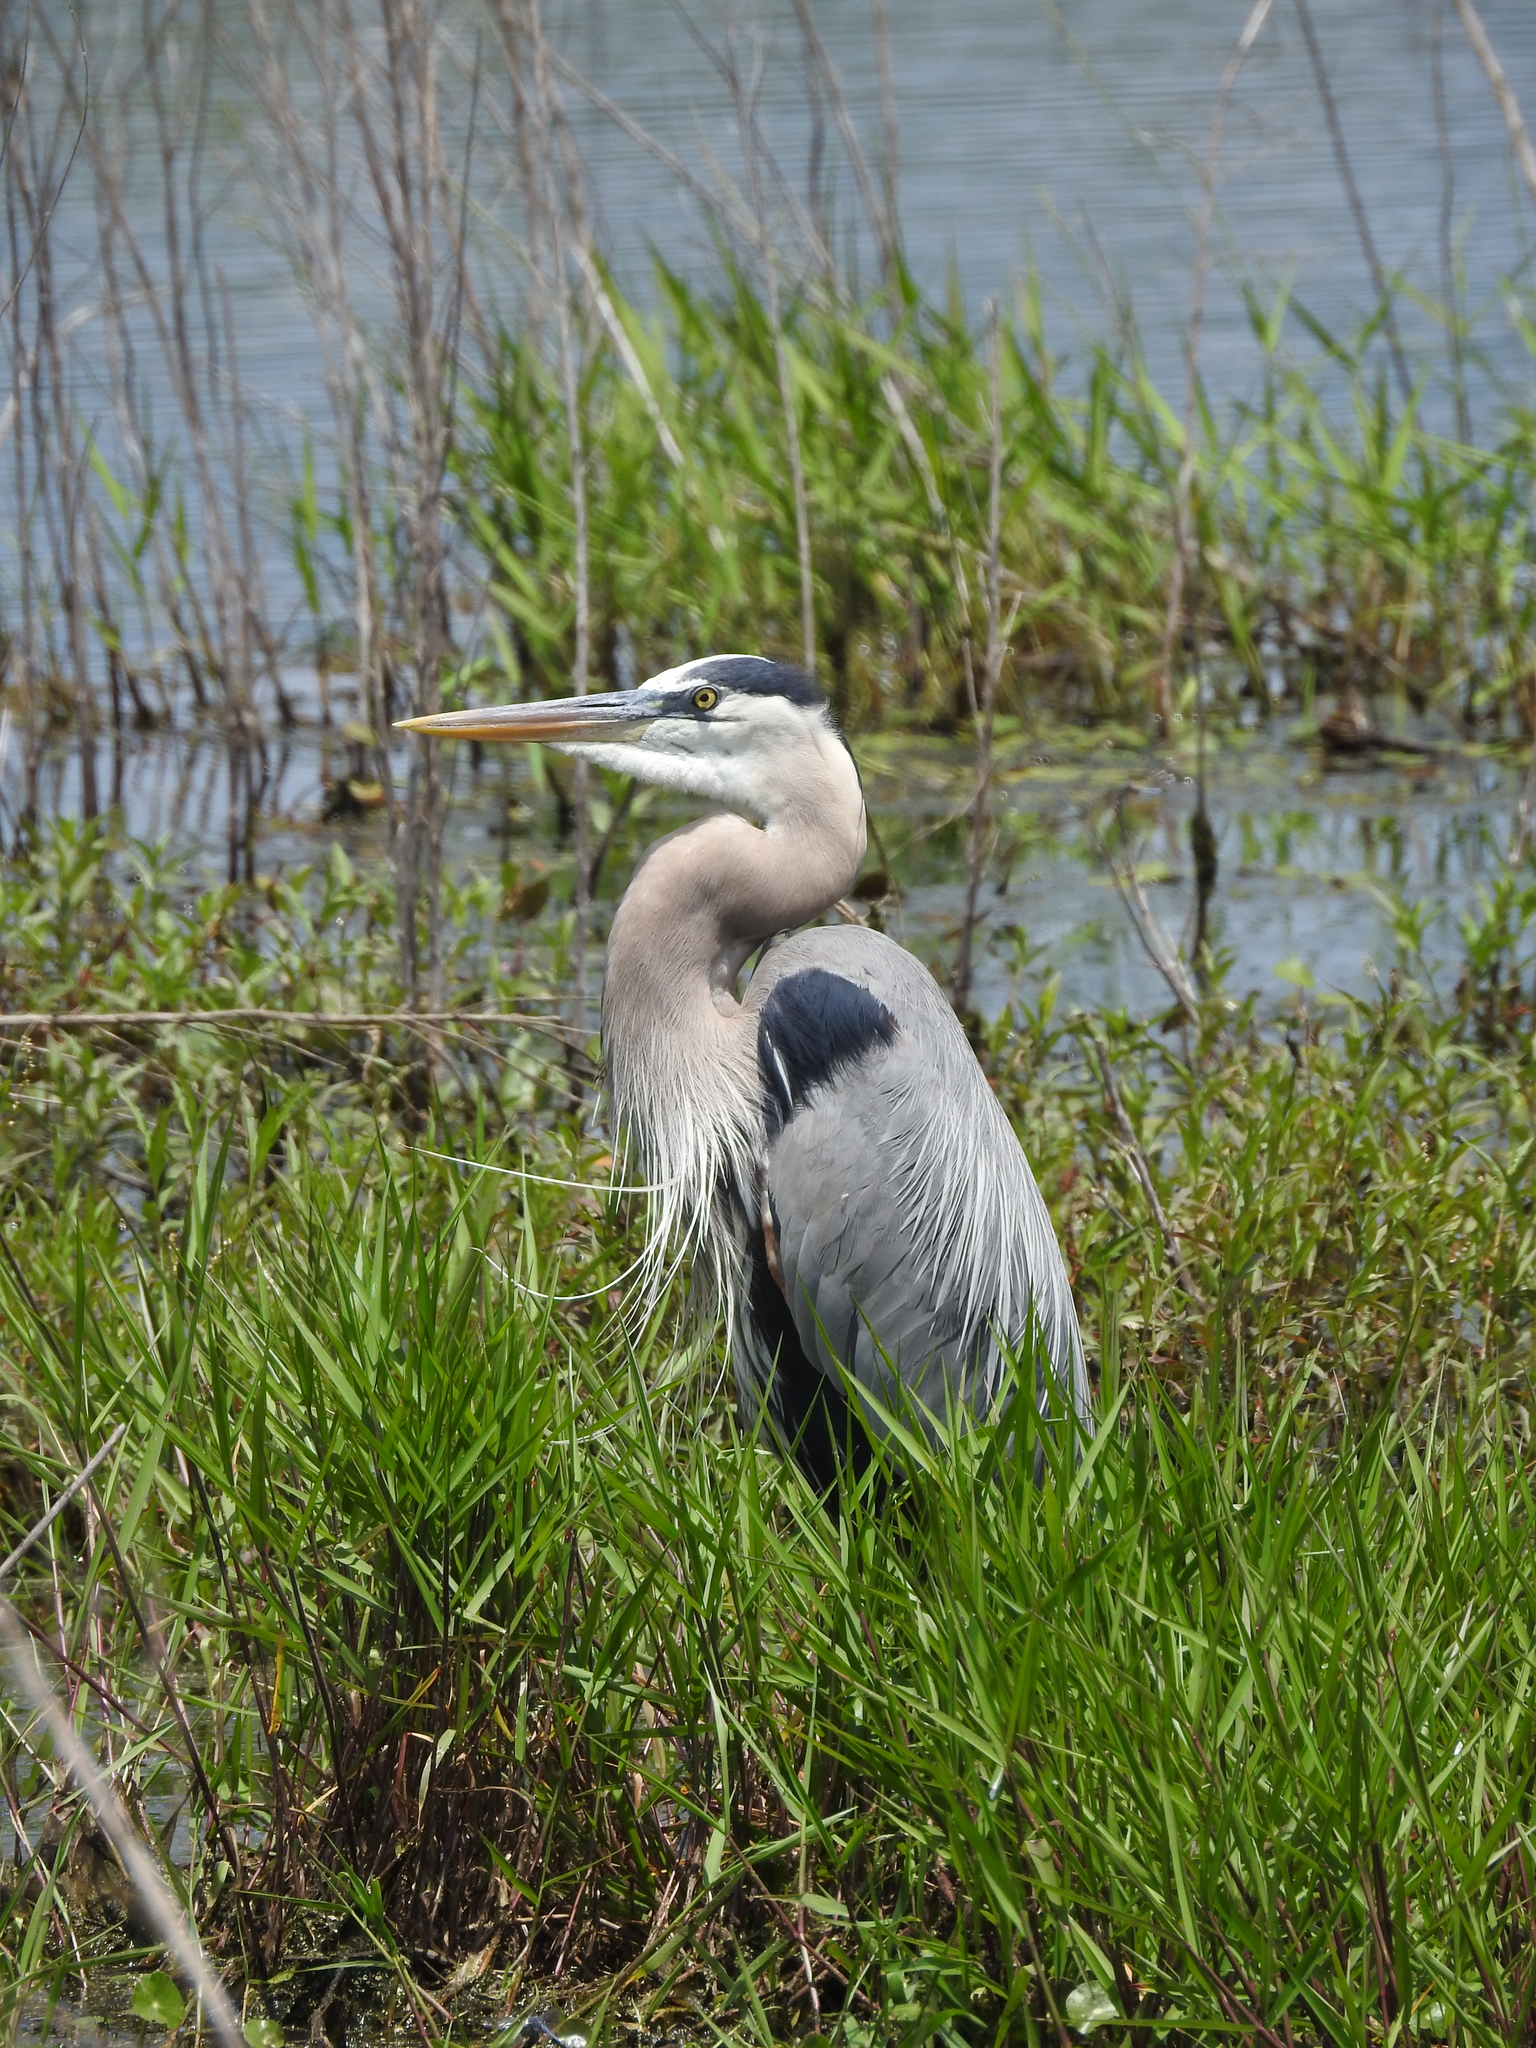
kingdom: Animalia
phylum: Chordata
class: Aves
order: Pelecaniformes
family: Ardeidae
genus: Ardea
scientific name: Ardea herodias
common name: Great blue heron
